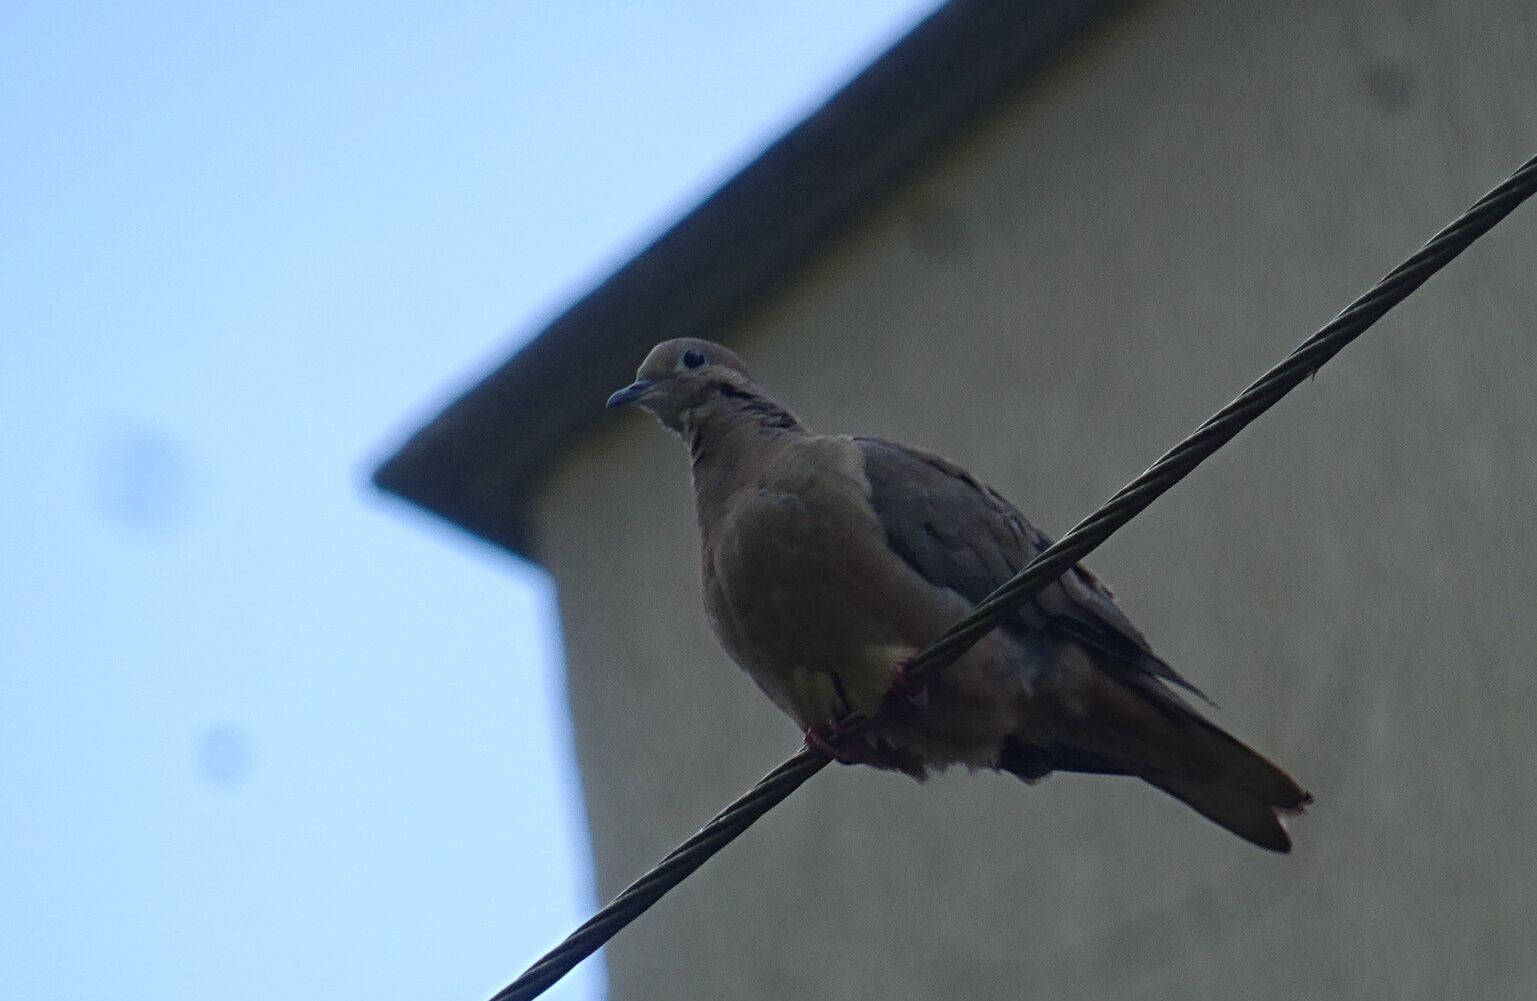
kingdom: Animalia
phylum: Chordata
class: Aves
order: Columbiformes
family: Columbidae
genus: Zenaida
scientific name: Zenaida auriculata
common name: Eared dove
